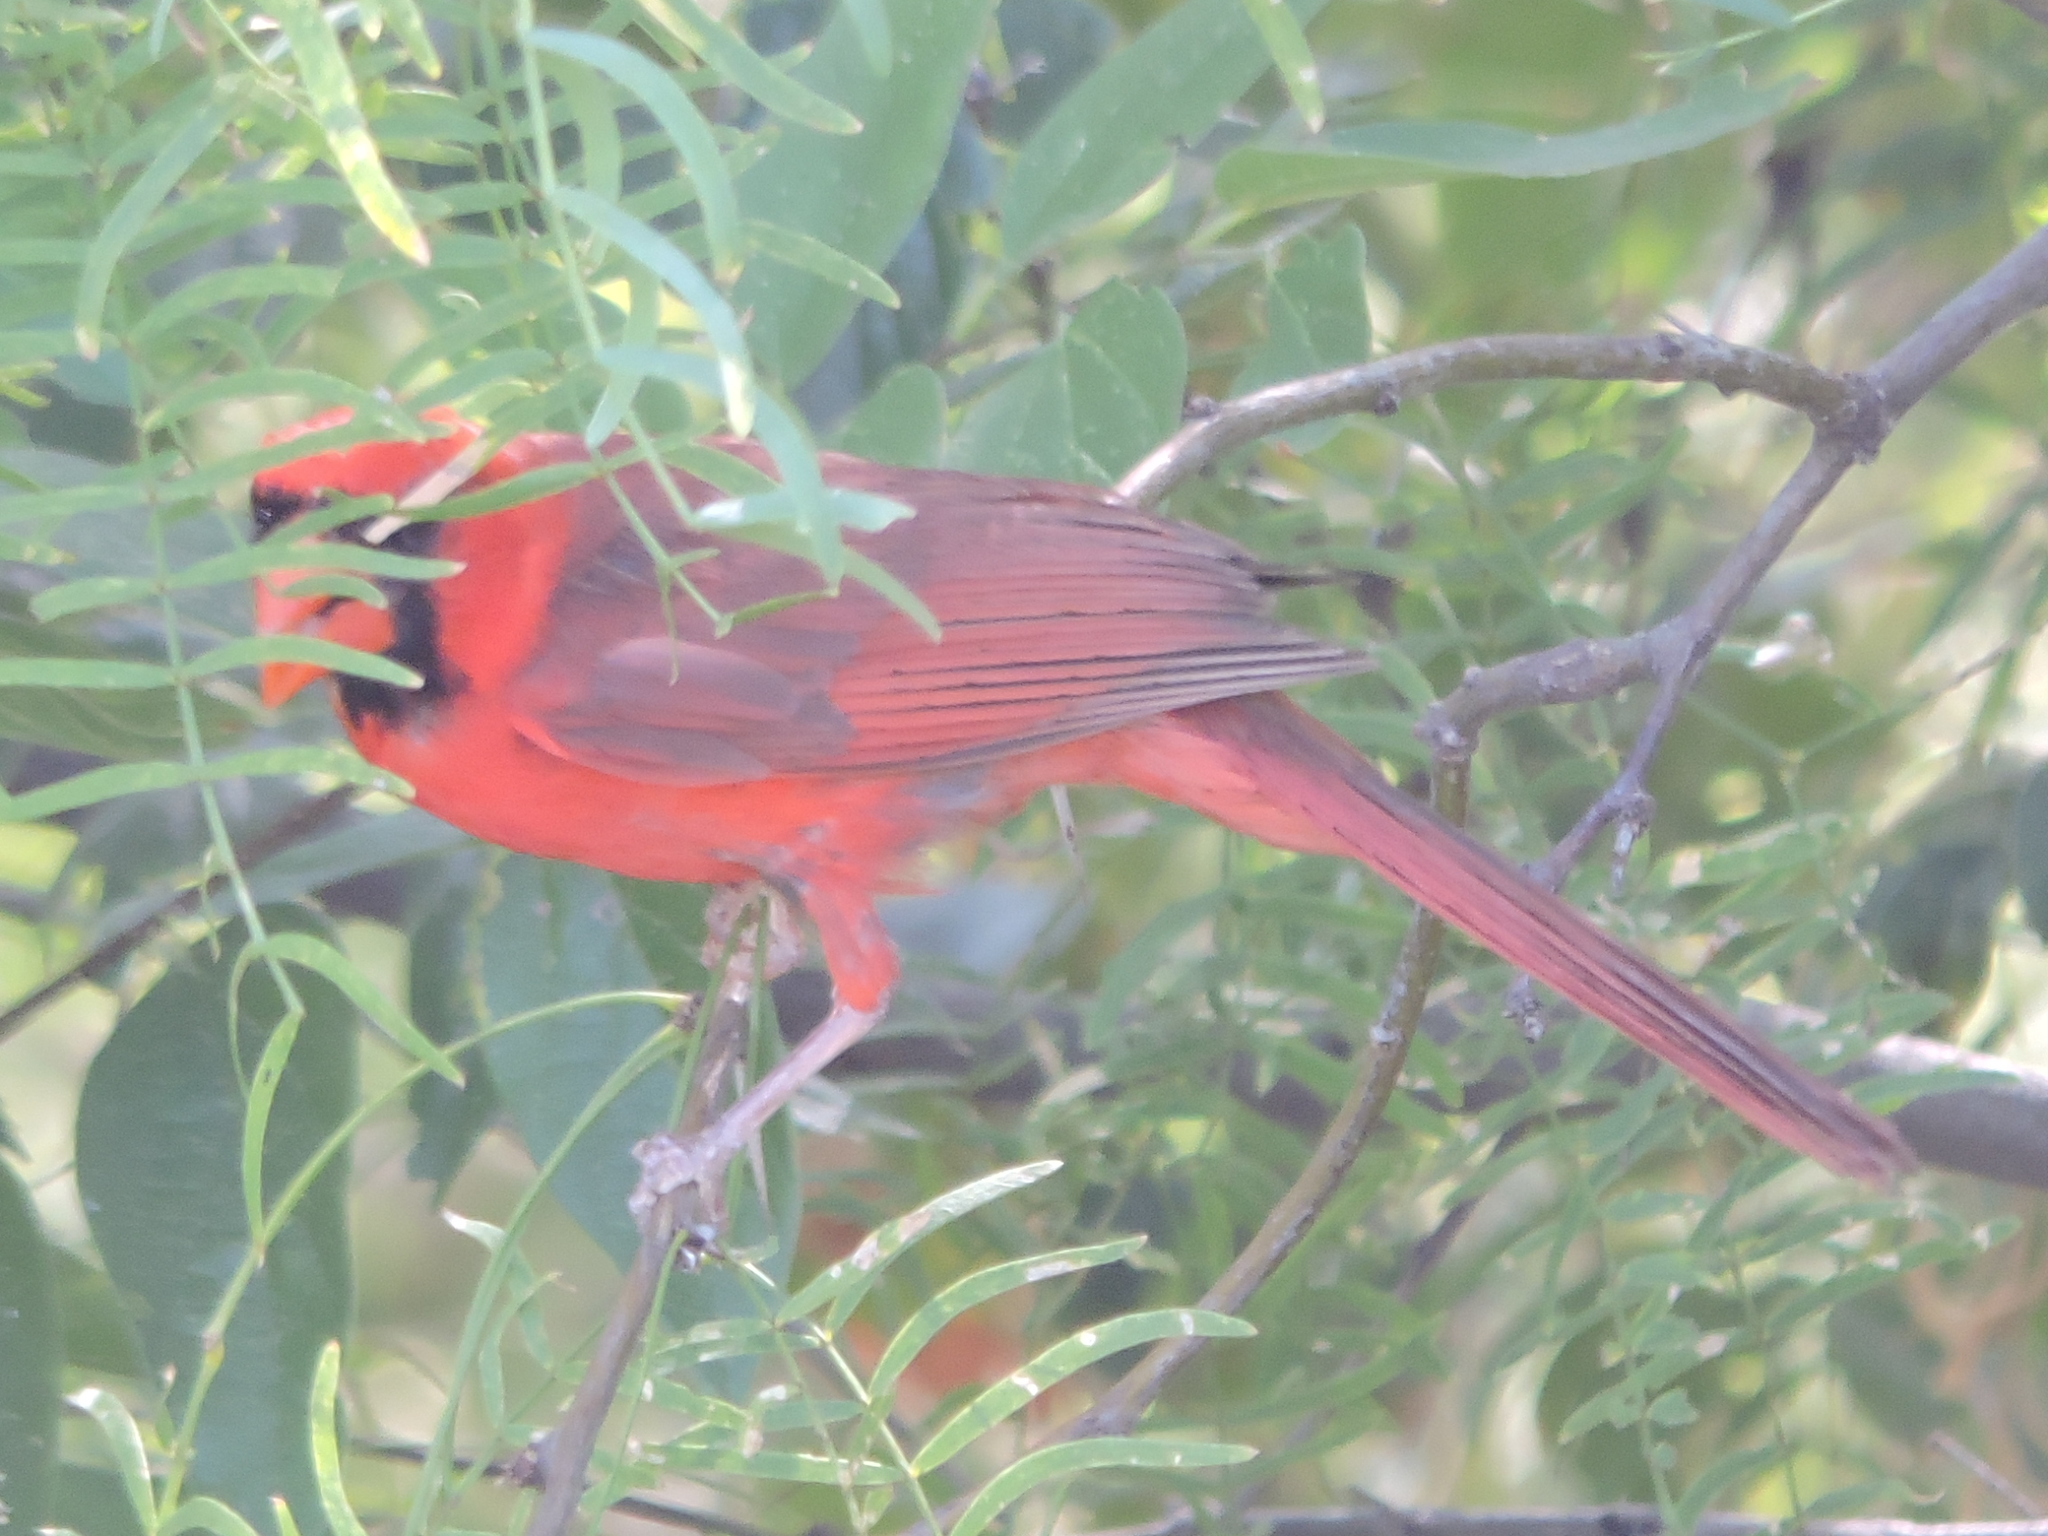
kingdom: Animalia
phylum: Chordata
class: Aves
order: Passeriformes
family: Cardinalidae
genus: Cardinalis
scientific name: Cardinalis cardinalis
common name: Northern cardinal
